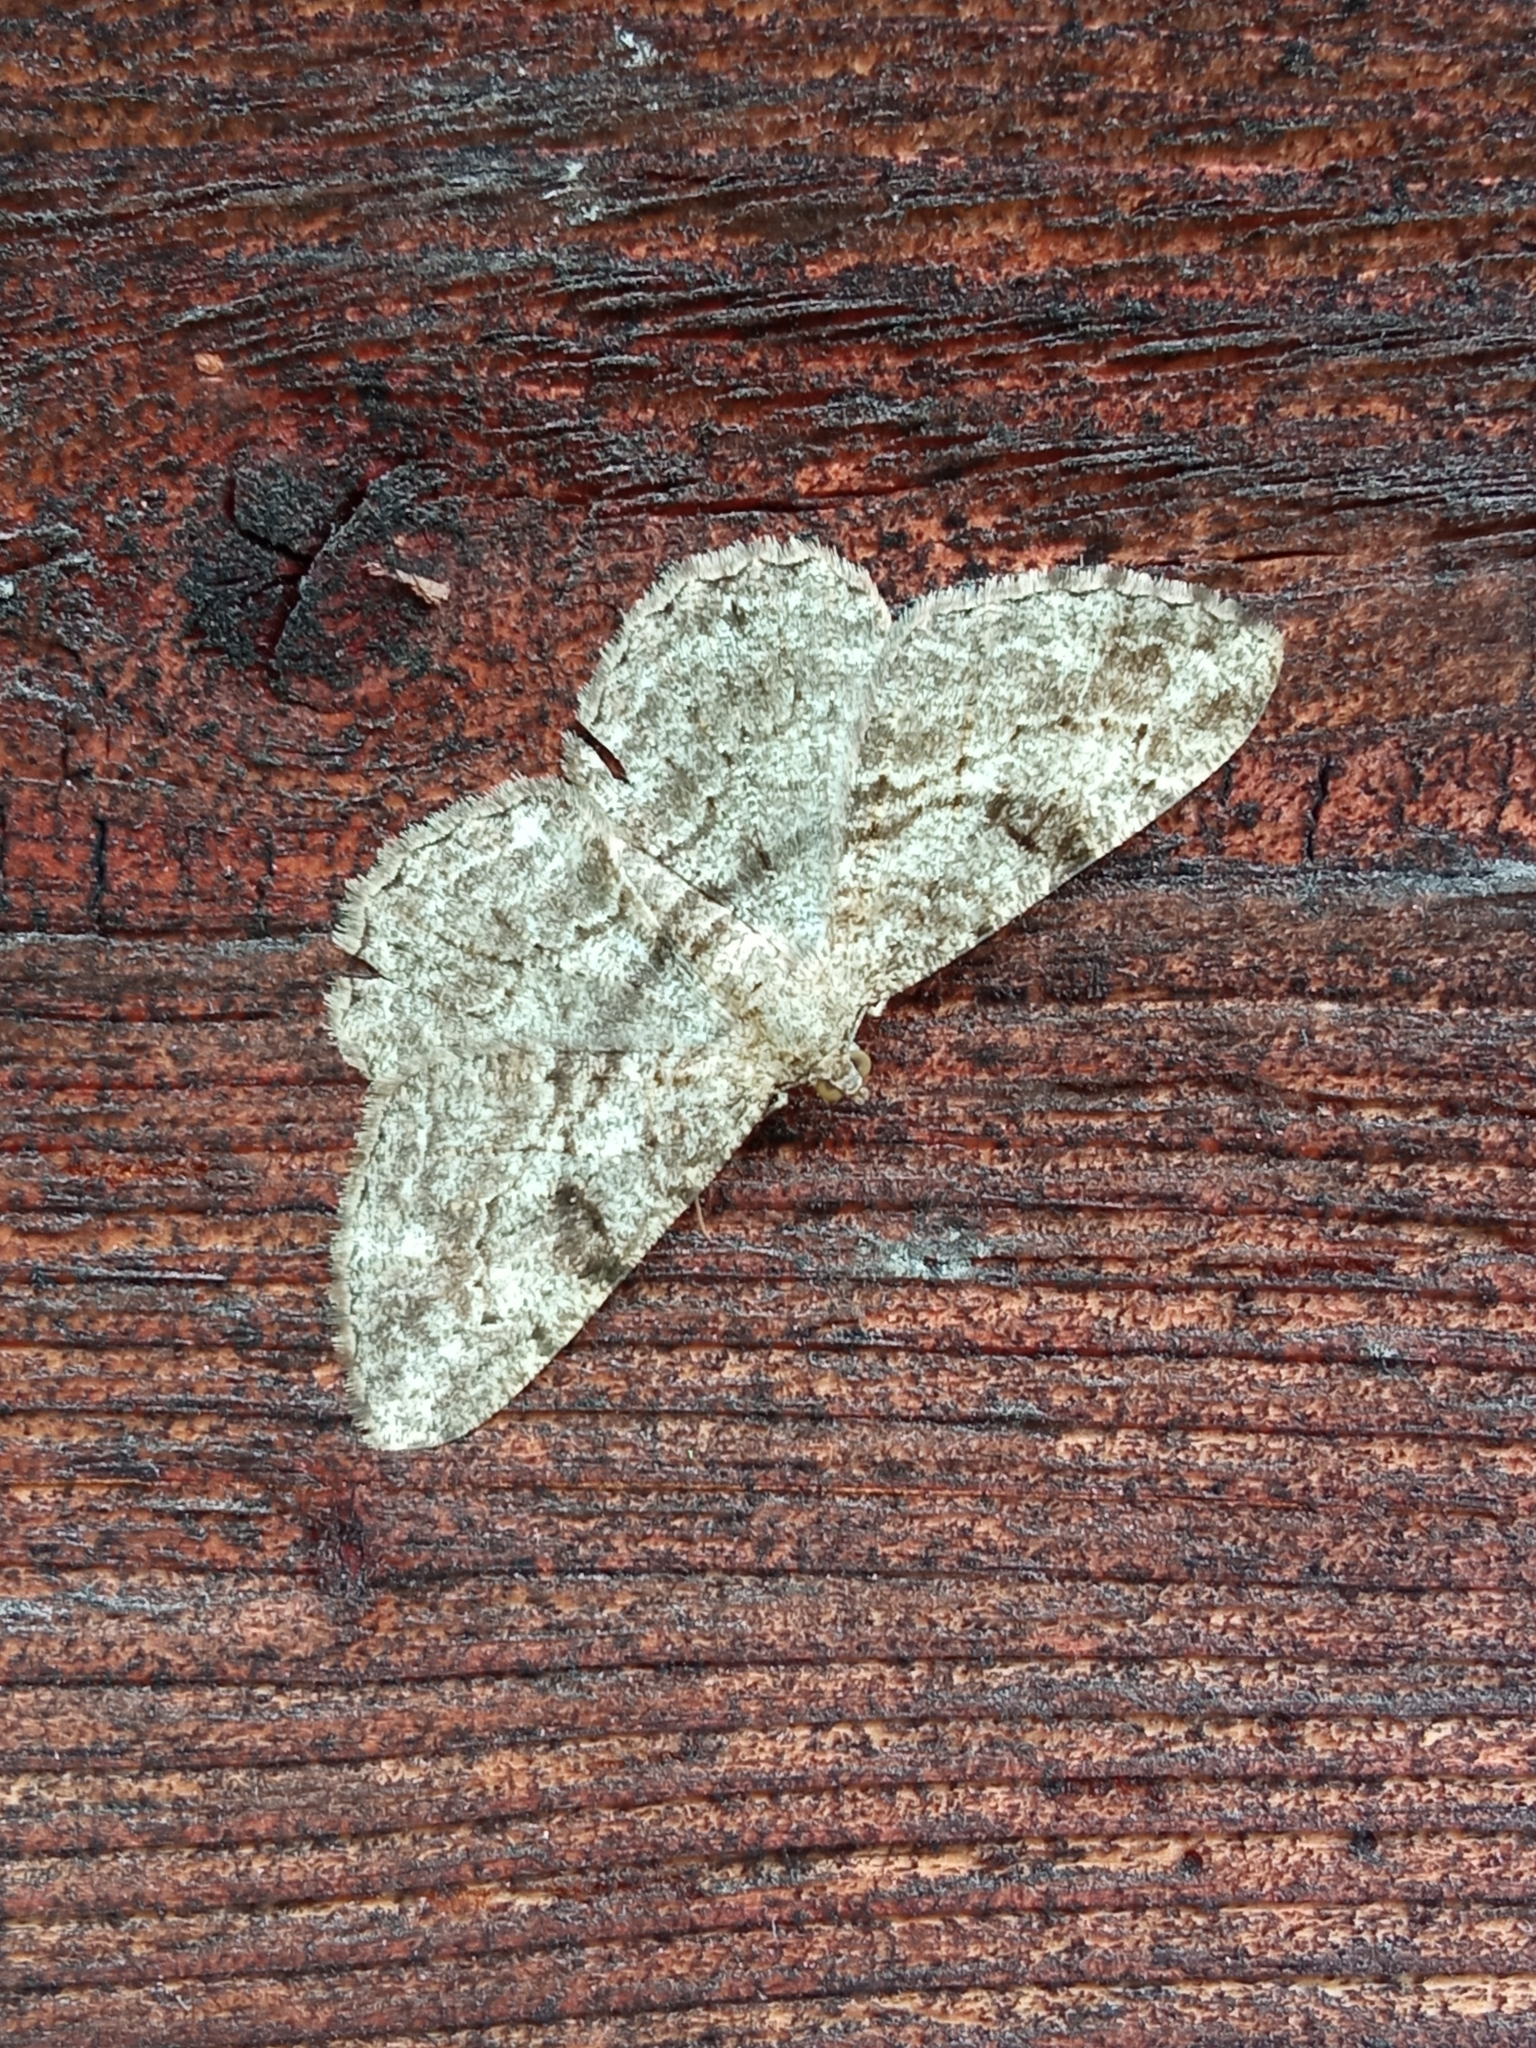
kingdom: Animalia
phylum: Arthropoda
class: Insecta
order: Lepidoptera
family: Geometridae
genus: Peribatodes
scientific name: Peribatodes rhomboidaria
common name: Willow beauty
